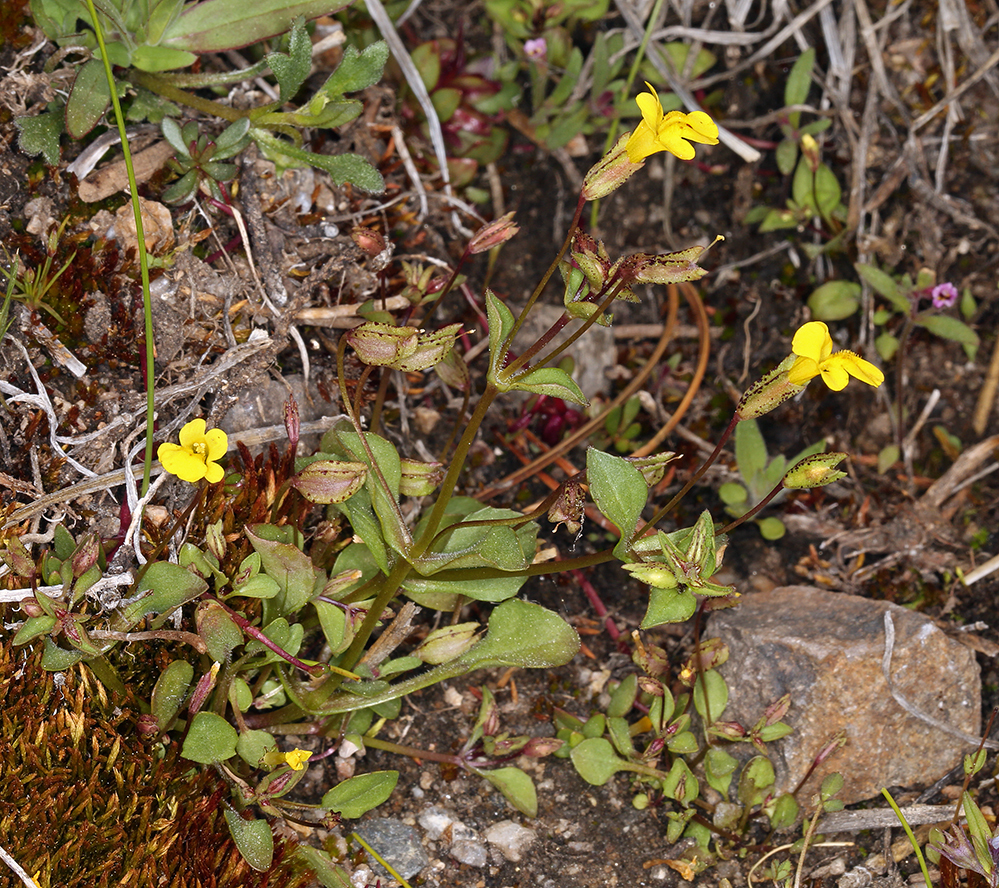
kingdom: Plantae
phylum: Tracheophyta
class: Magnoliopsida
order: Lamiales
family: Phrymaceae
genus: Erythranthe
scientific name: Erythranthe howaldiae
